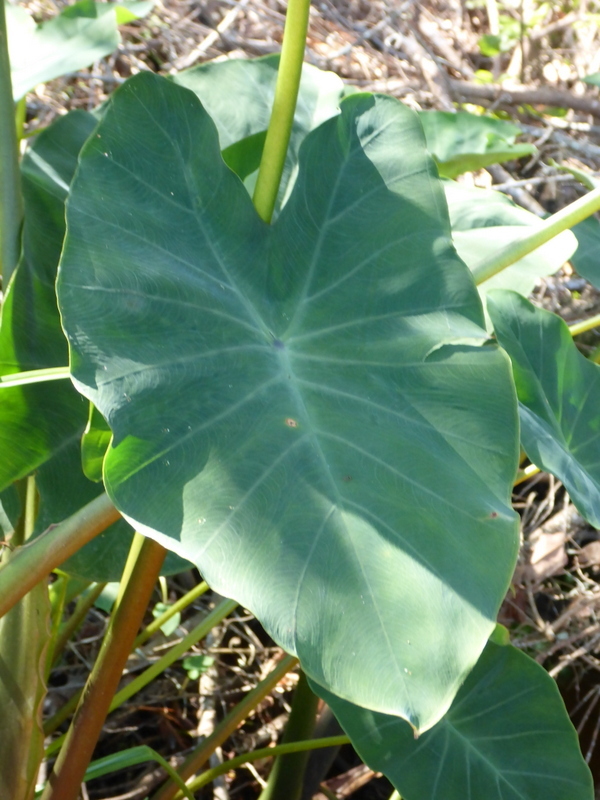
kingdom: Plantae
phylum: Tracheophyta
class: Liliopsida
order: Alismatales
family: Araceae
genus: Colocasia
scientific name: Colocasia esculenta
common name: Taro
